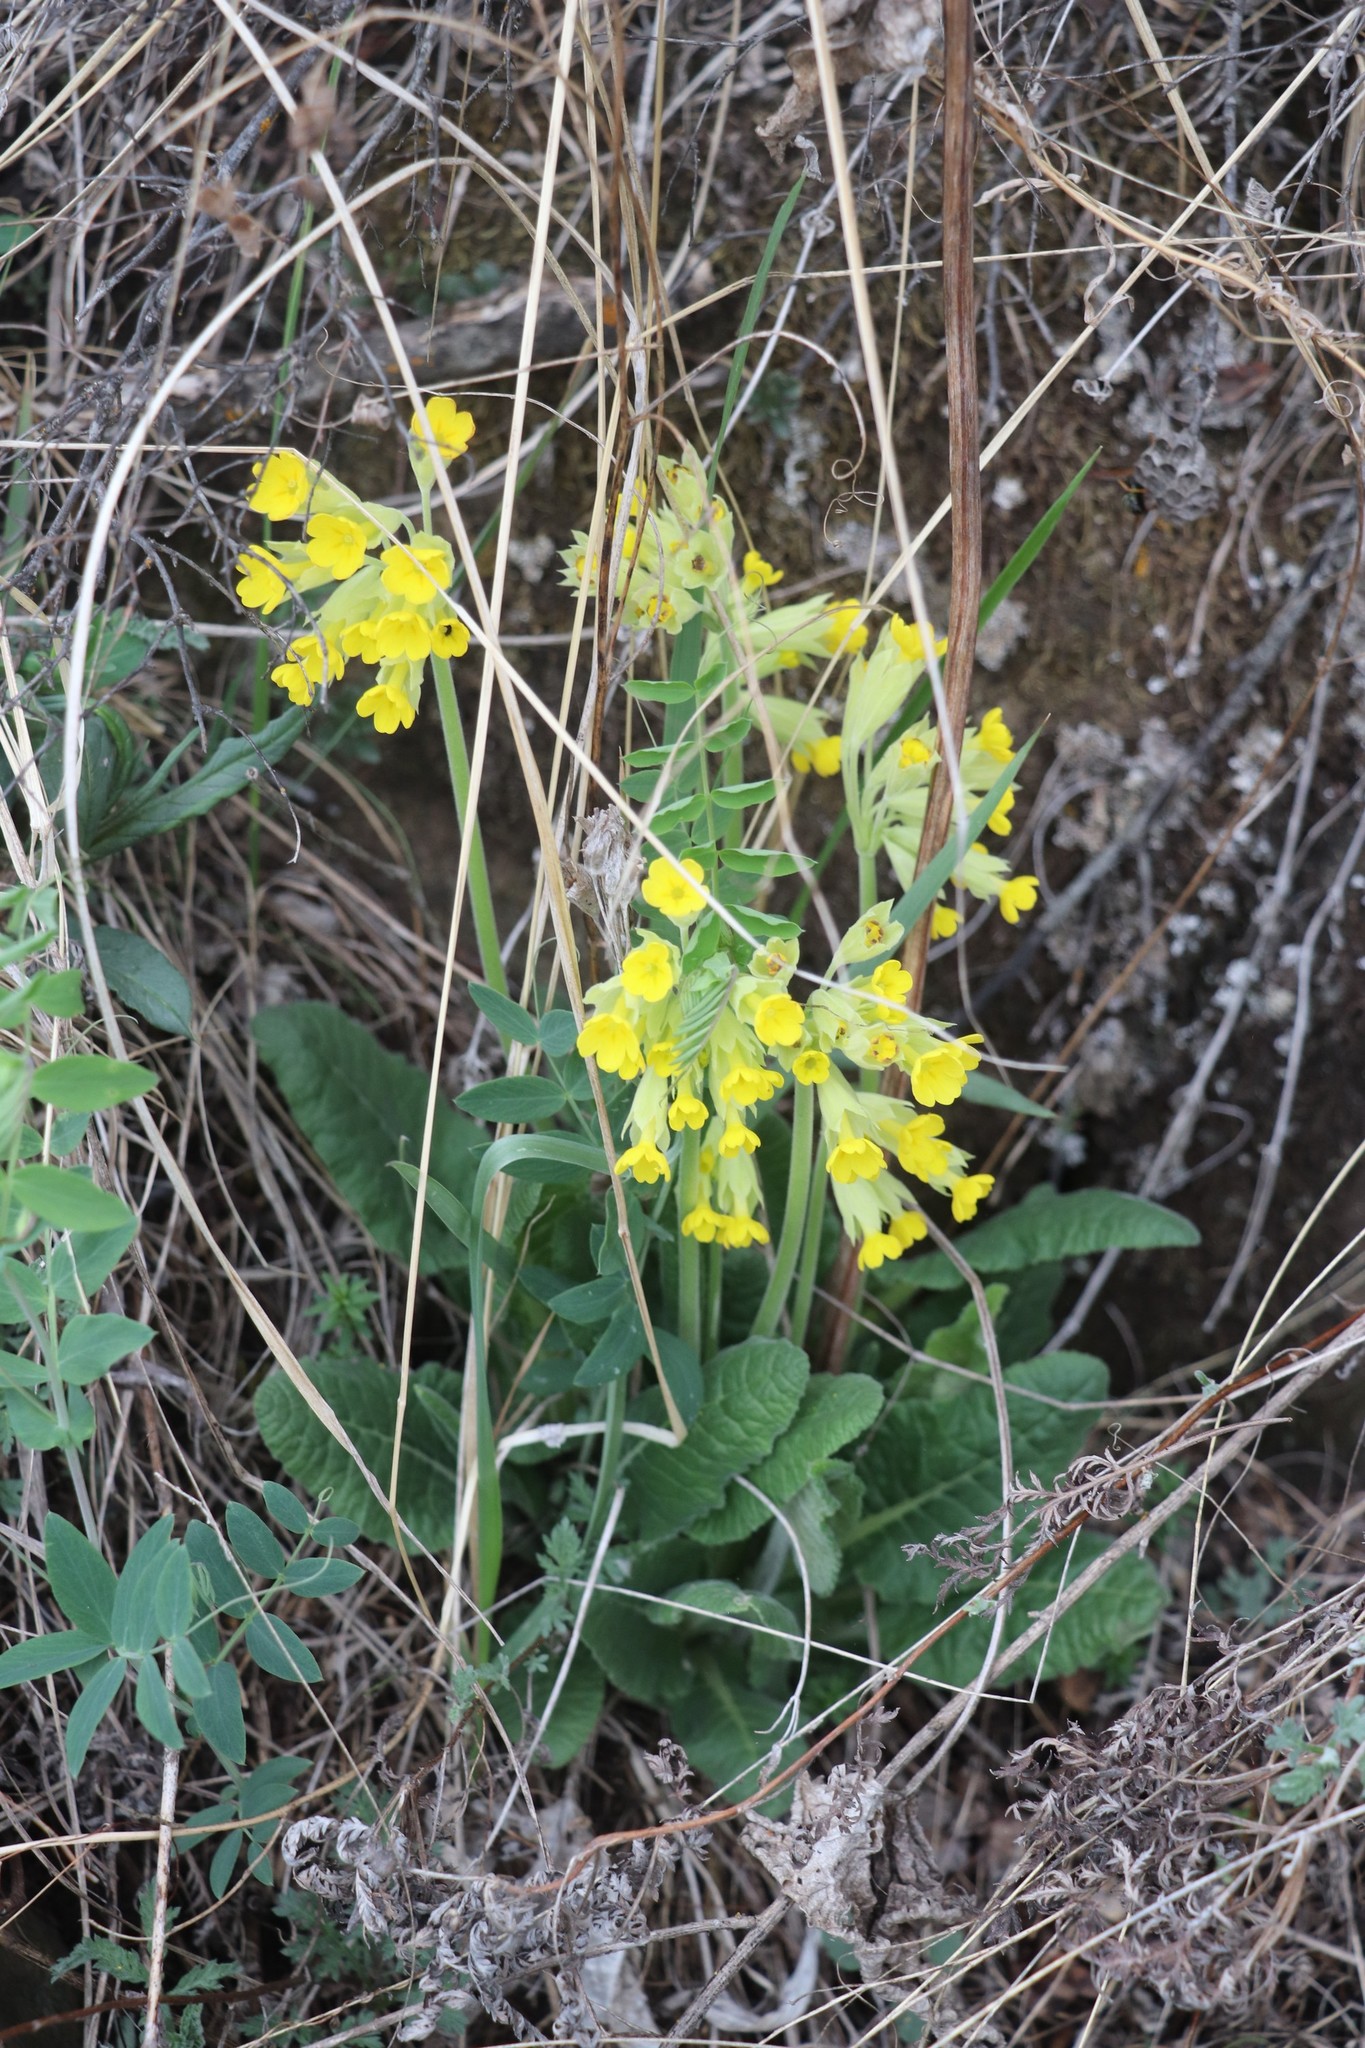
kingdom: Plantae
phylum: Tracheophyta
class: Magnoliopsida
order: Ericales
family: Primulaceae
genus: Primula
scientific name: Primula veris
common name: Cowslip
